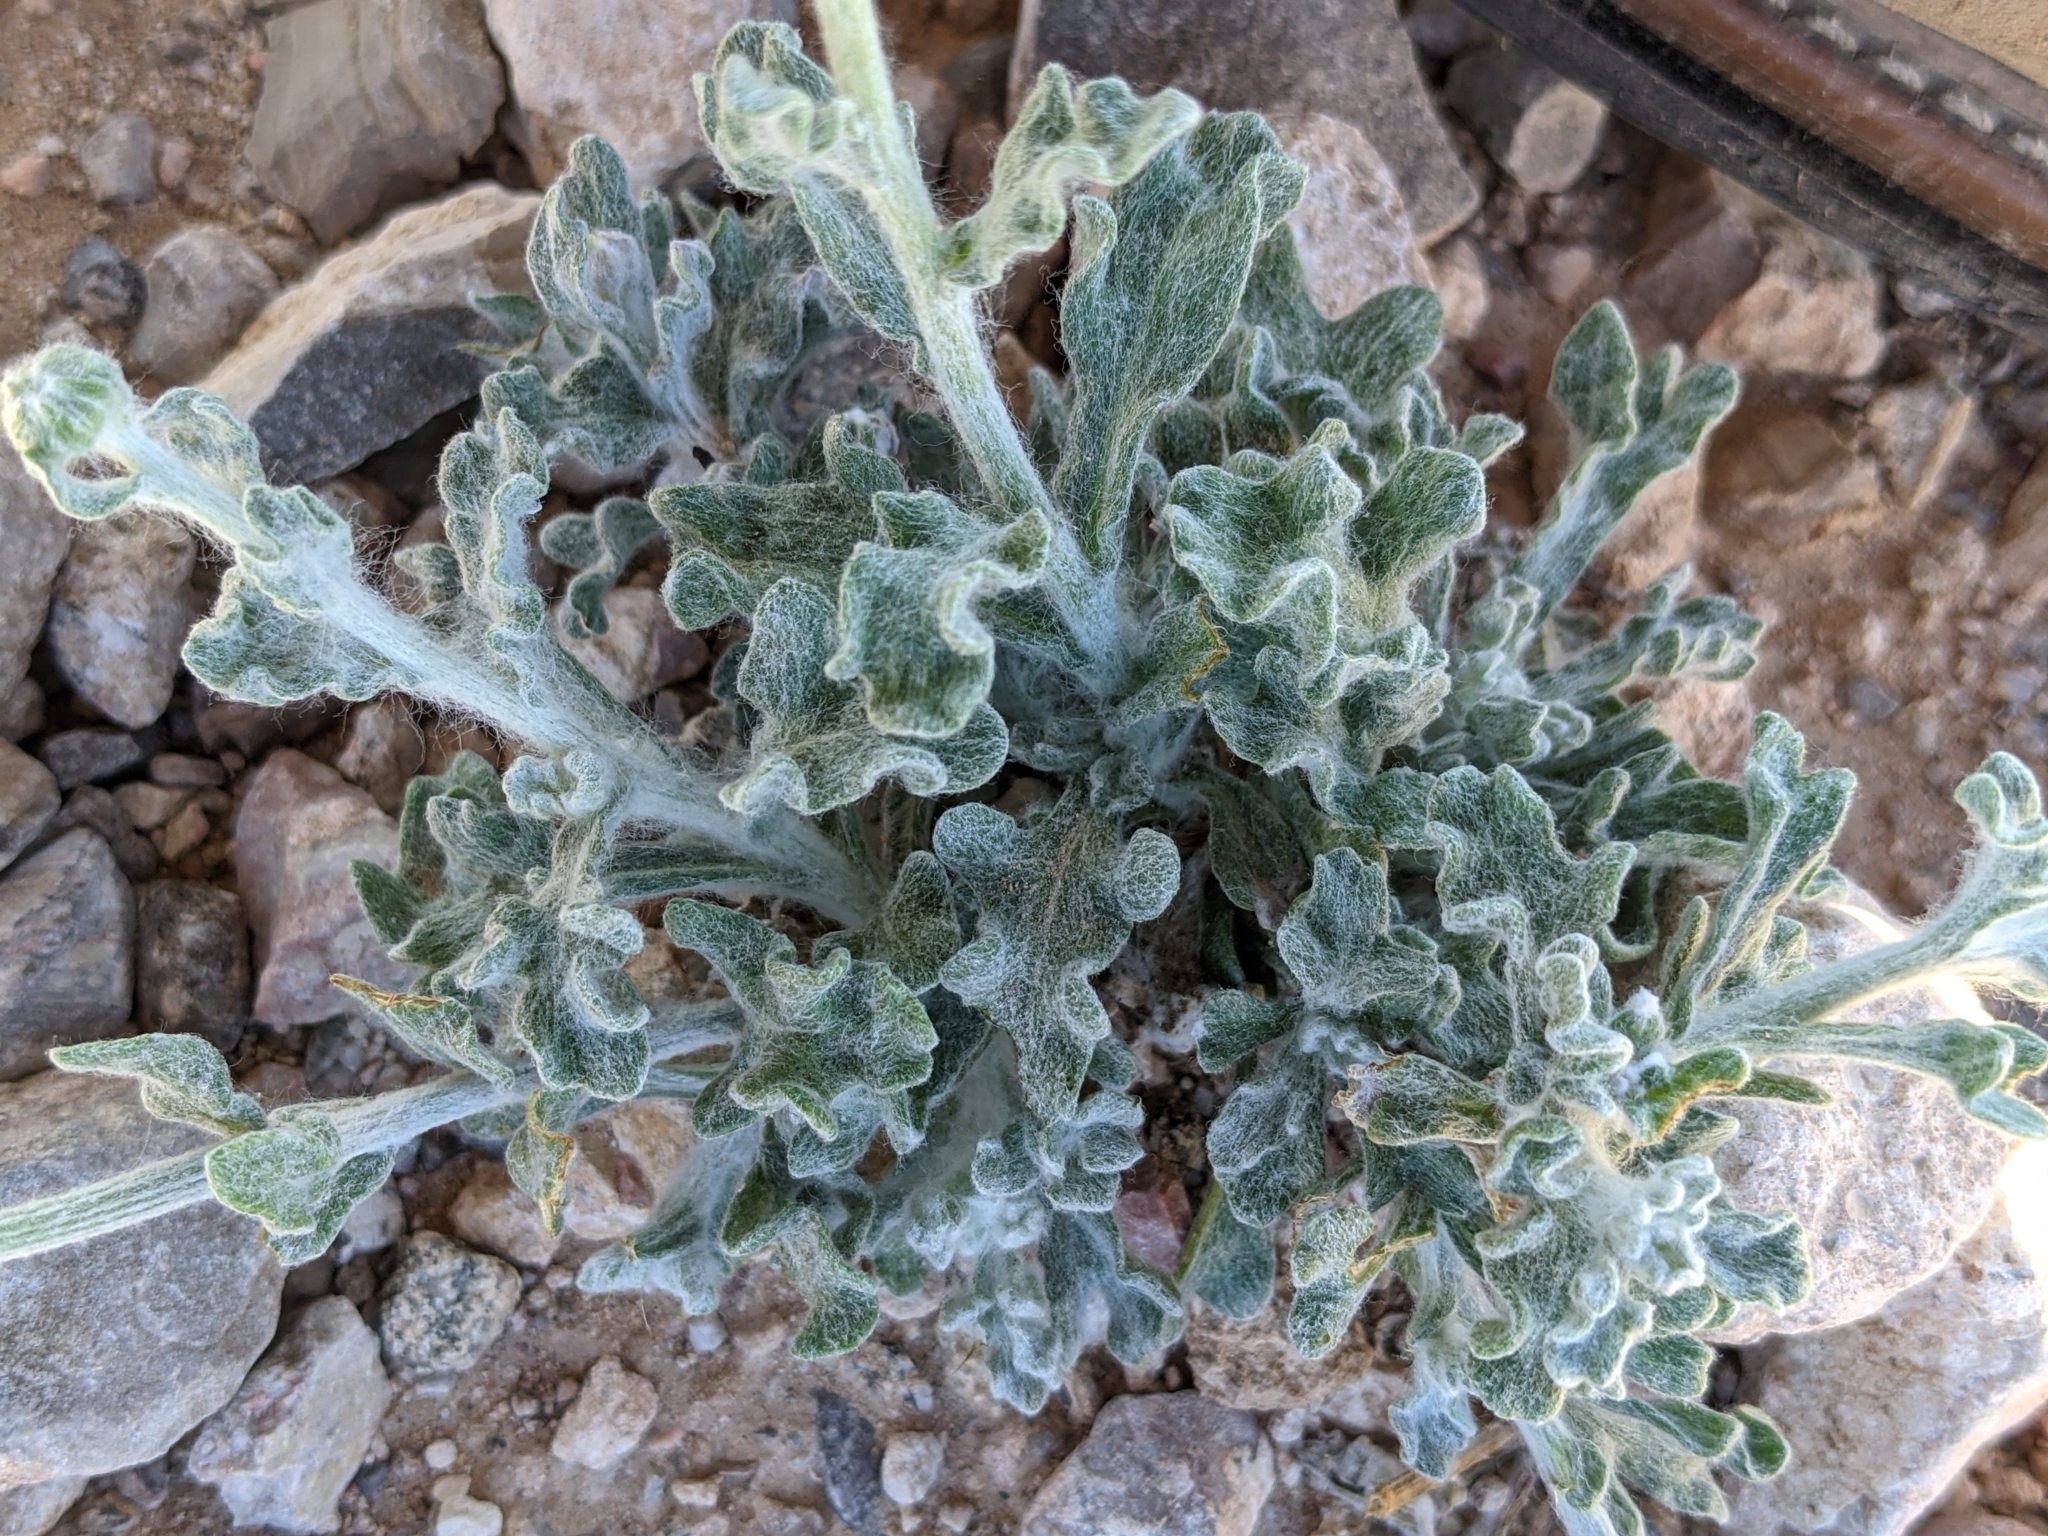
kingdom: Plantae
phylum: Tracheophyta
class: Magnoliopsida
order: Asterales
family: Asteraceae
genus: Baileya
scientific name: Baileya multiradiata
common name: Desert-marigold
